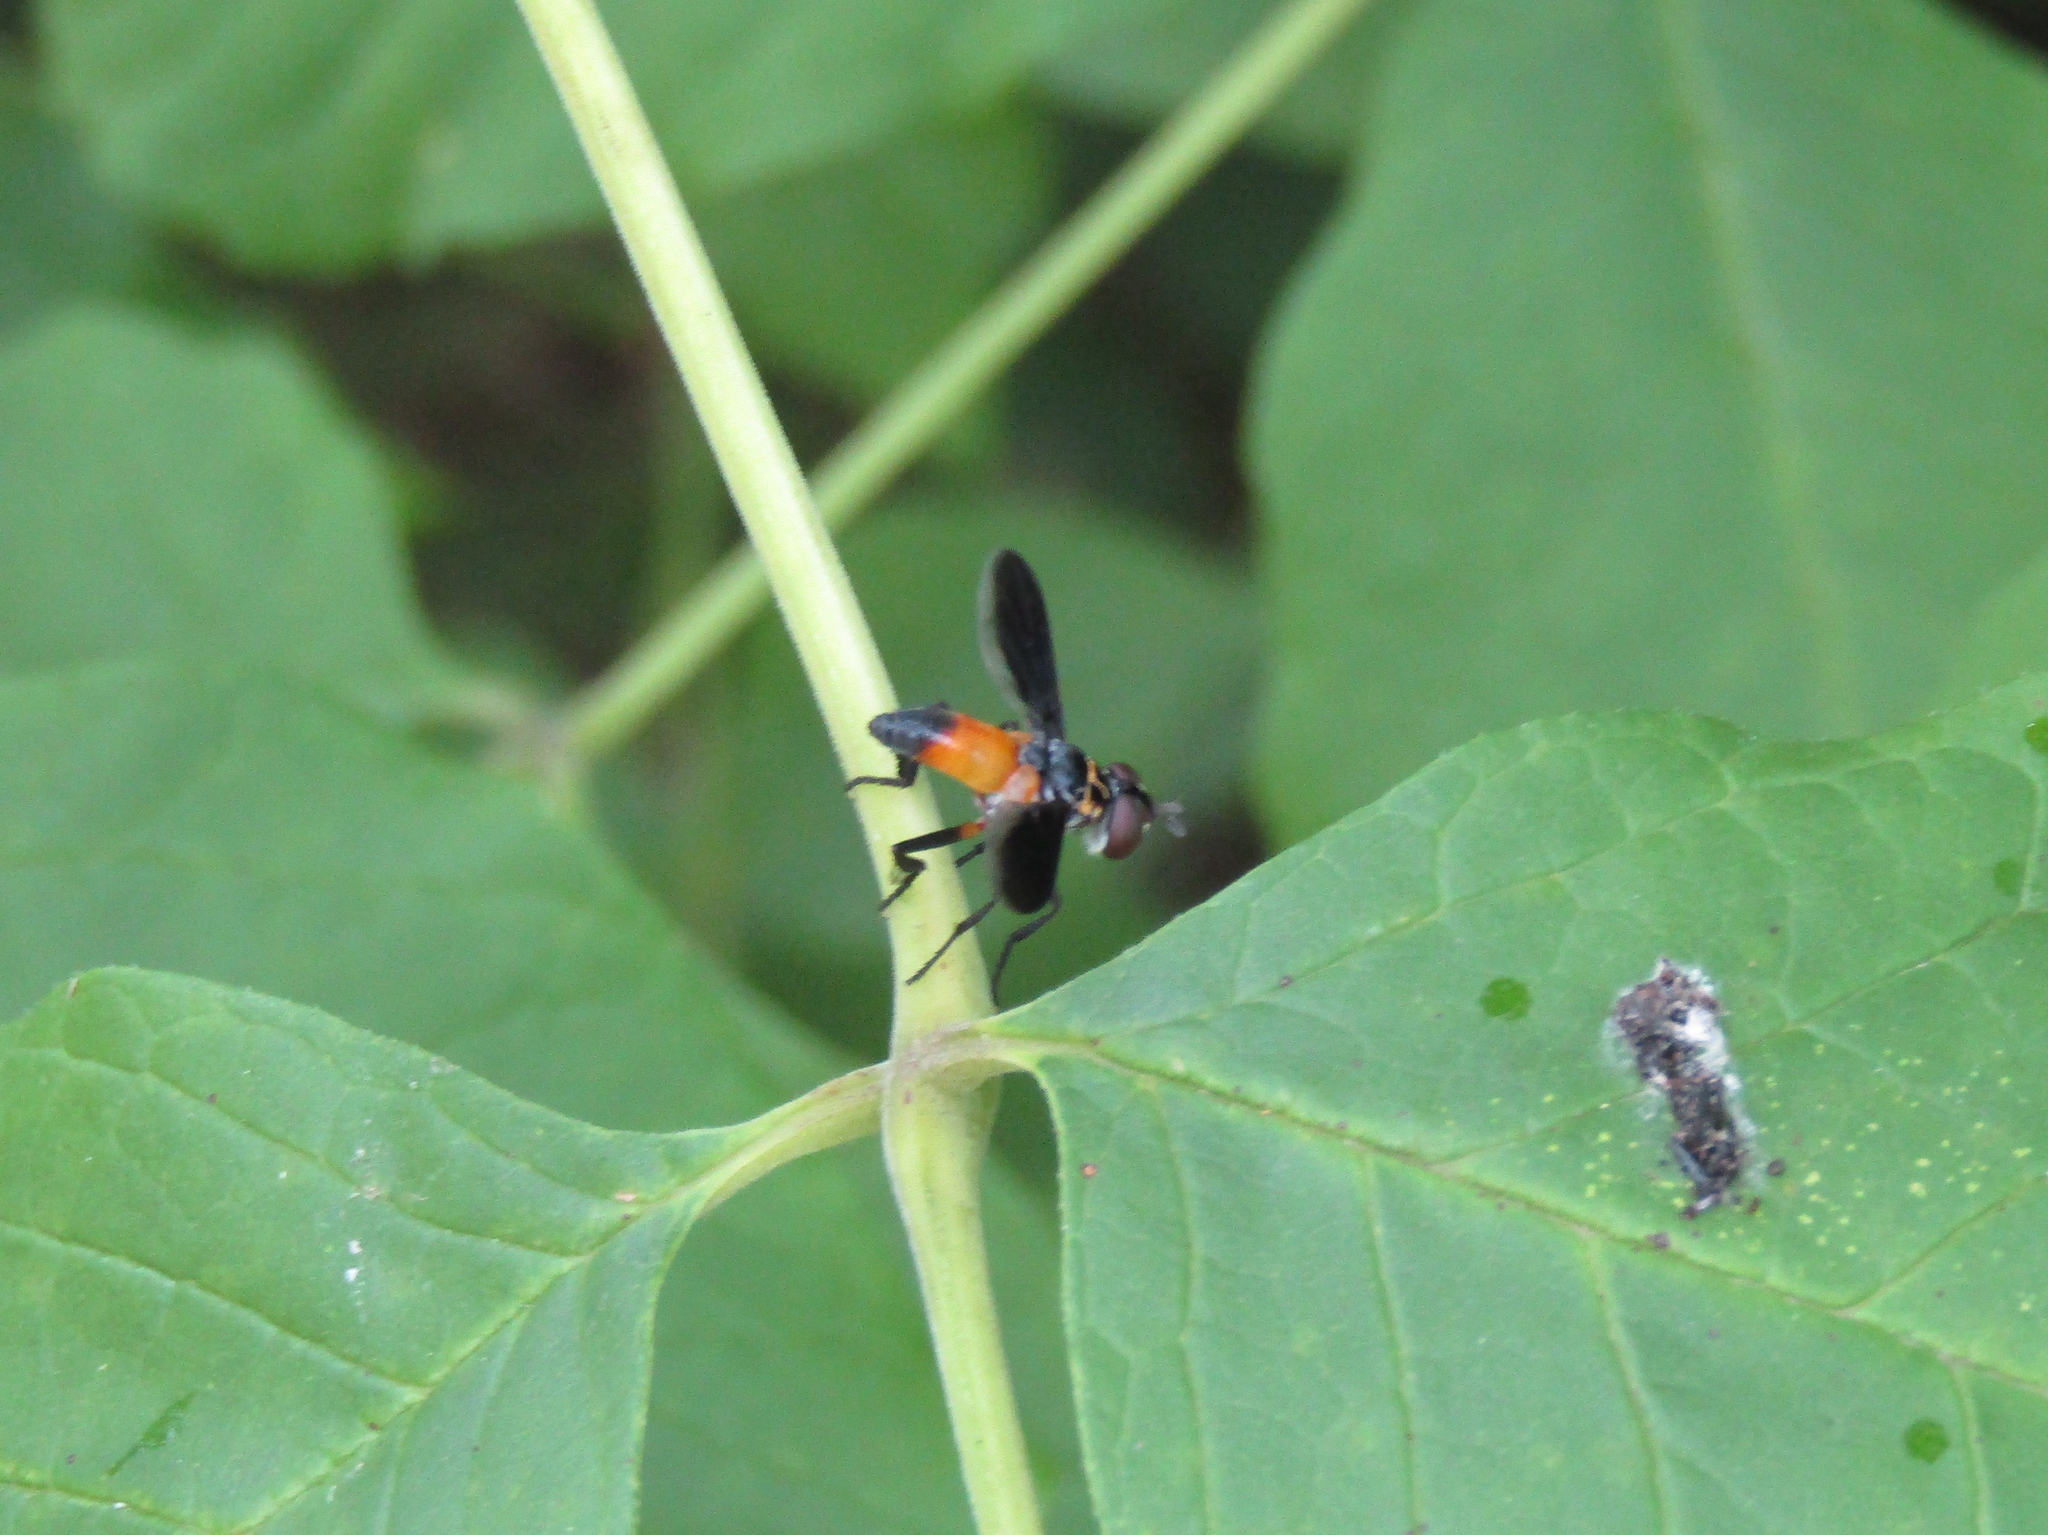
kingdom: Animalia
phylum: Arthropoda
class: Insecta
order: Diptera
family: Tachinidae
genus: Trichopoda
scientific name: Trichopoda pennipes
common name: Tachinid fly
